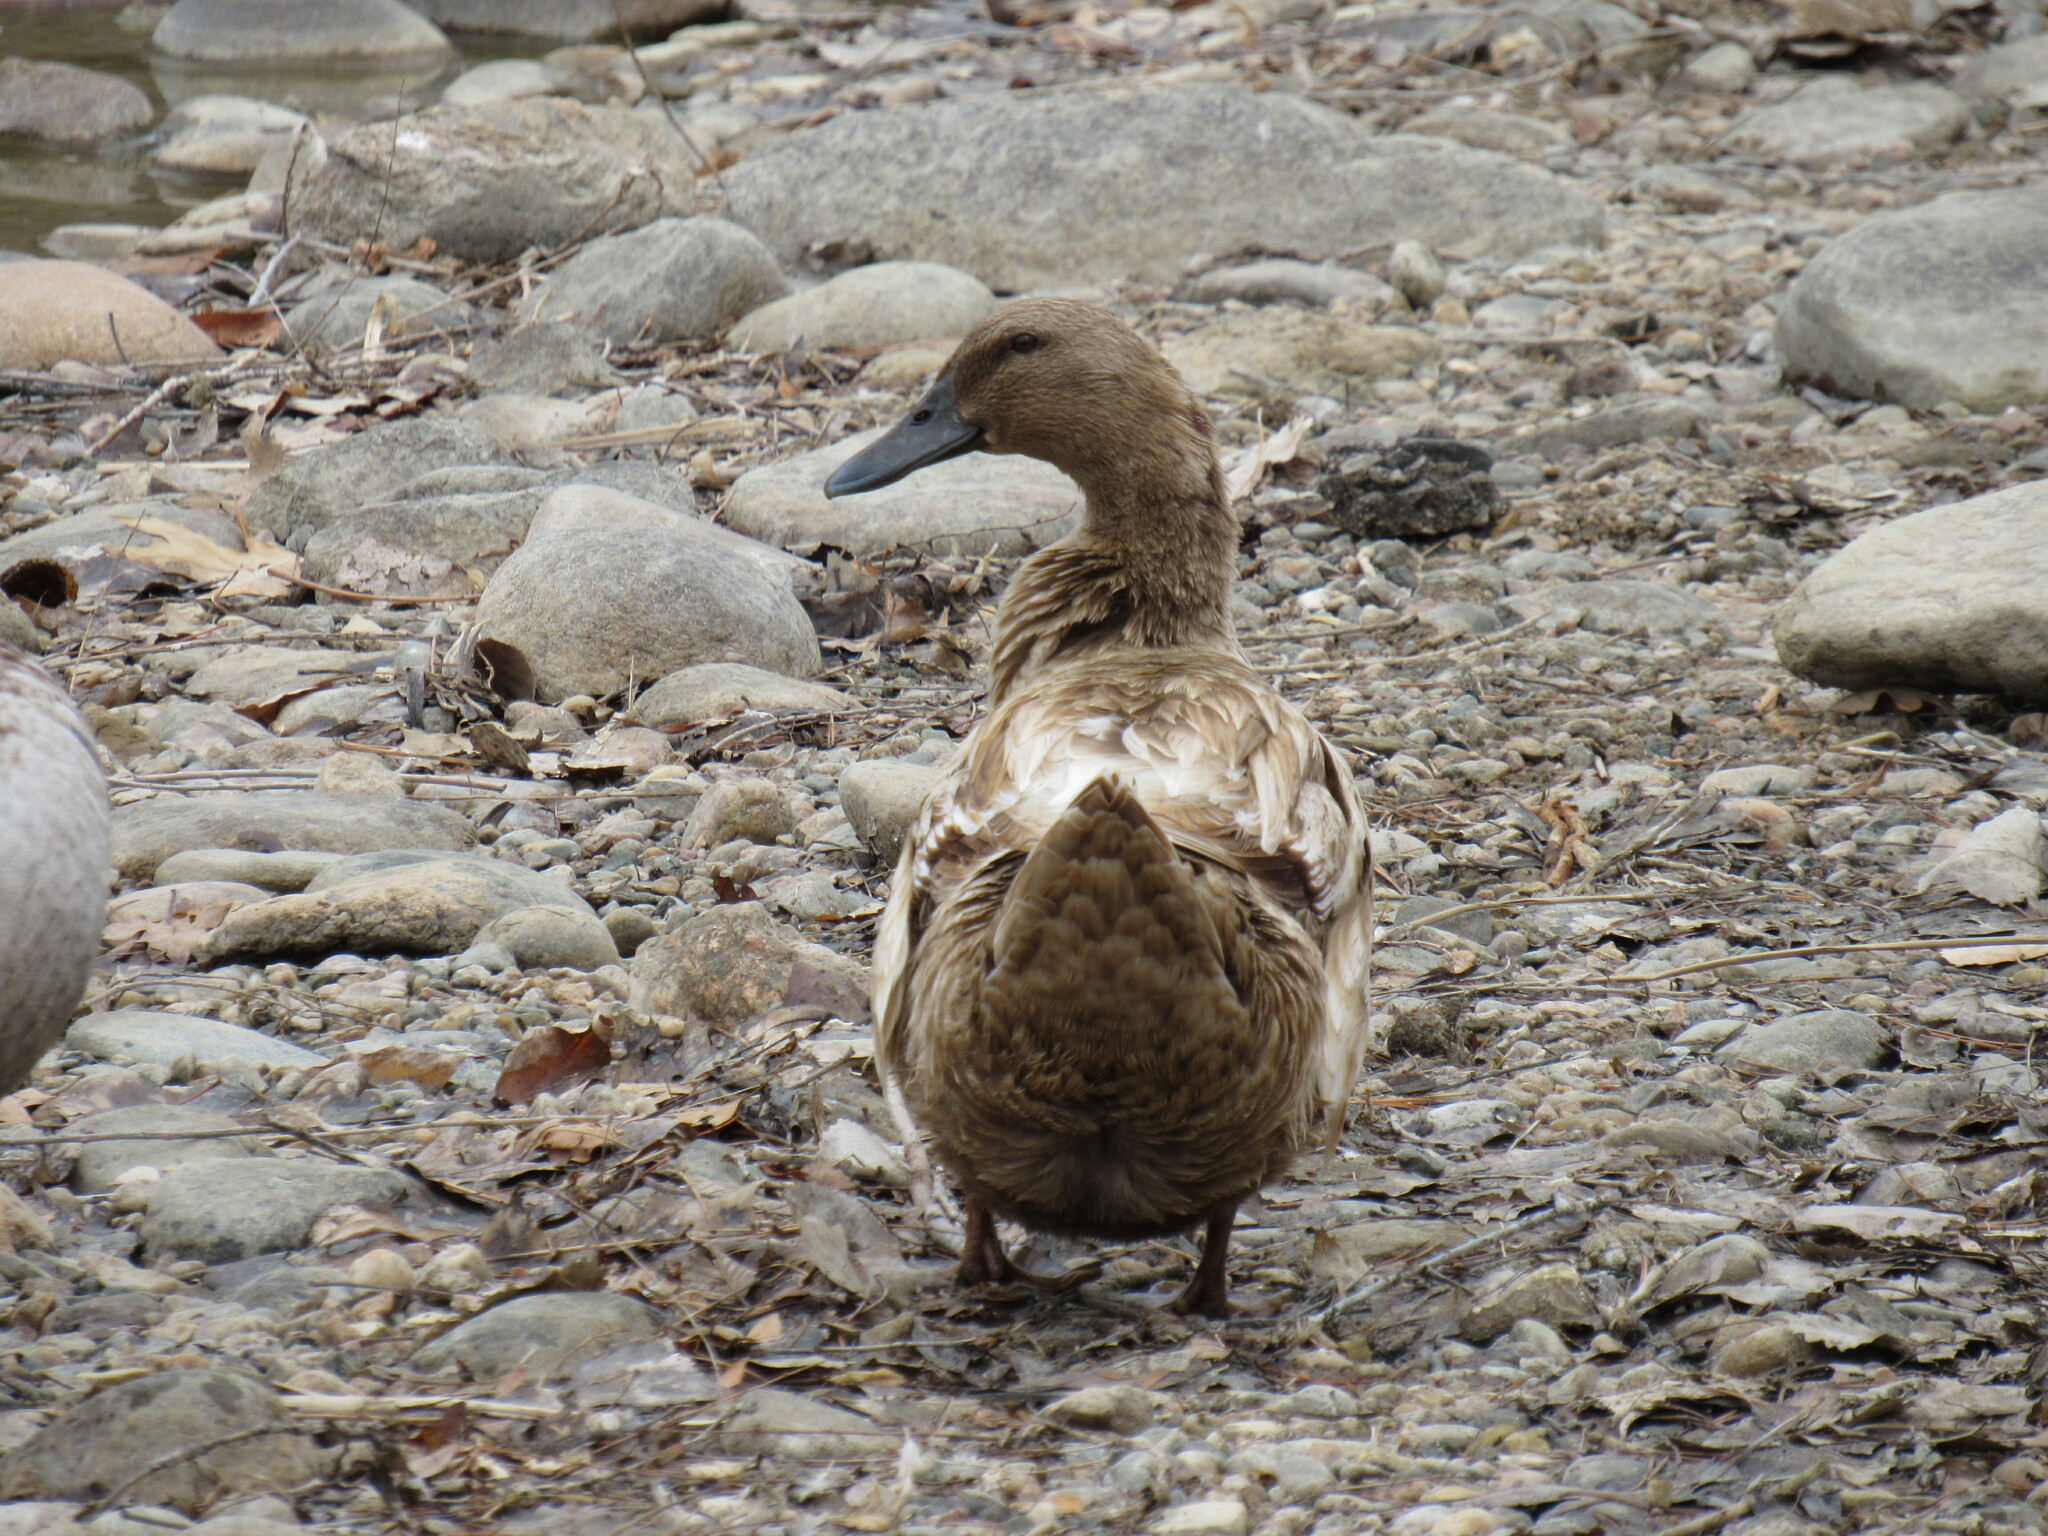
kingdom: Animalia
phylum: Chordata
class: Aves
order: Anseriformes
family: Anatidae
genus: Anas
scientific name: Anas platyrhynchos
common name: Mallard
